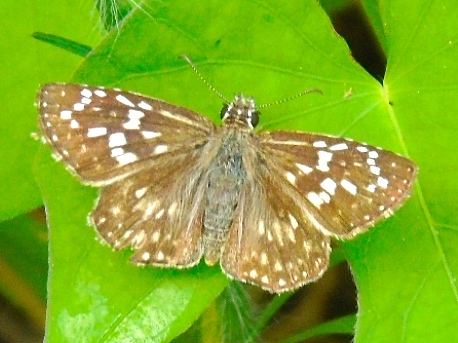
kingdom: Animalia
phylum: Arthropoda
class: Insecta
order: Lepidoptera
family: Hesperiidae
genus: Pyrgus
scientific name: Pyrgus oileus
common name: Tropical checkered-skipper
